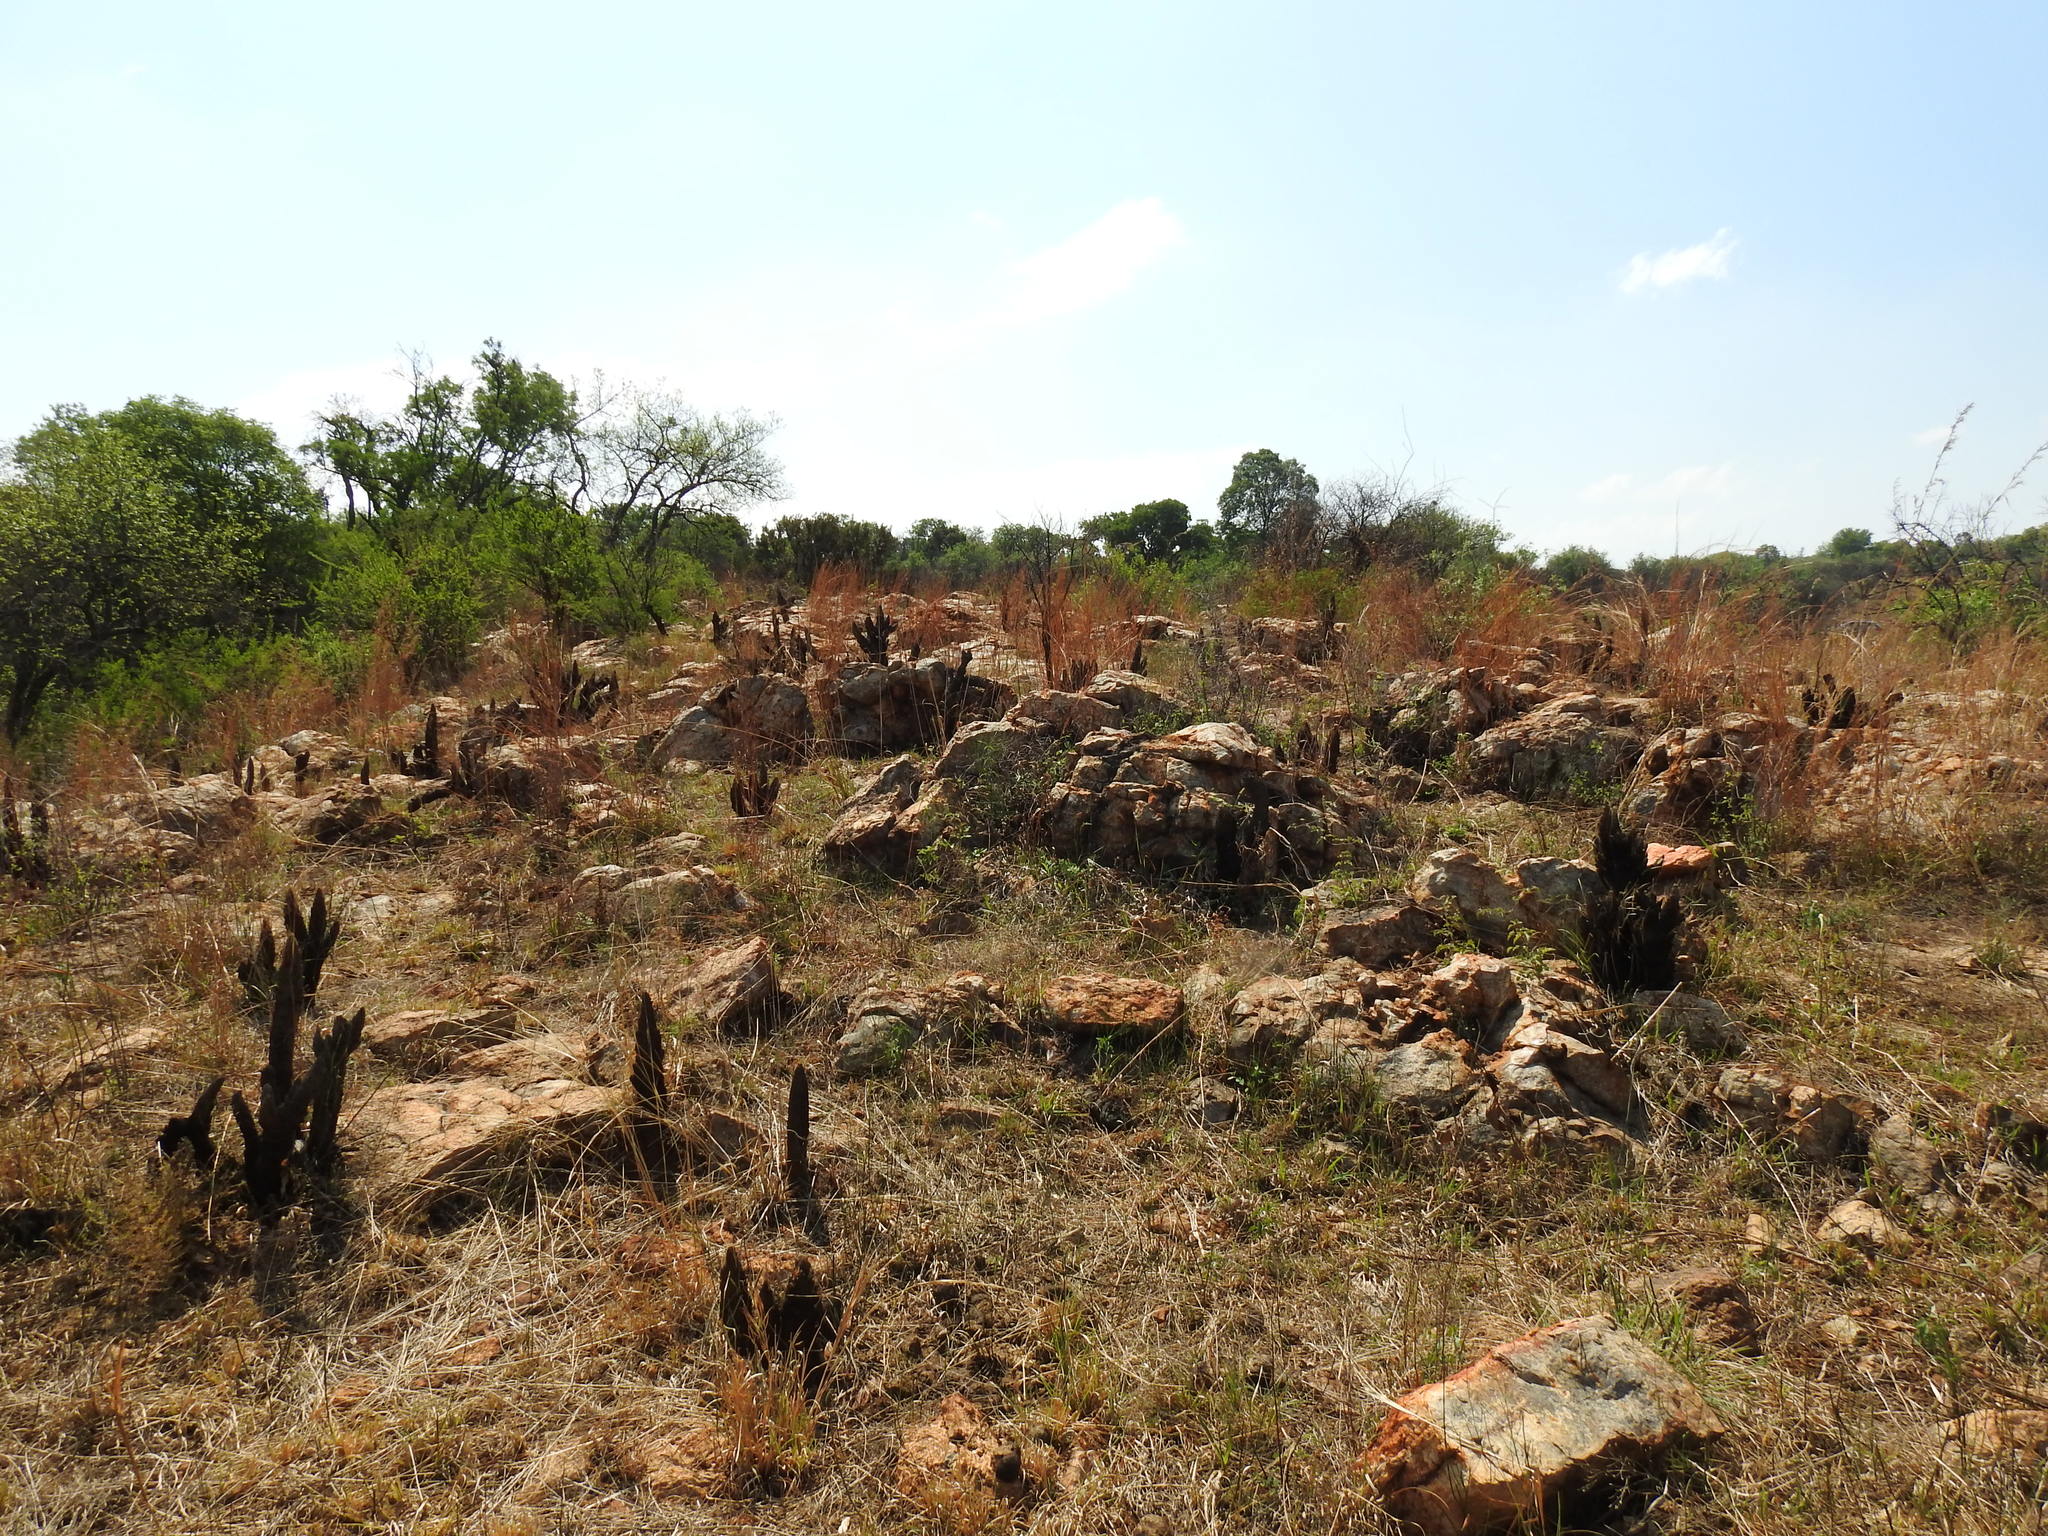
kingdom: Plantae
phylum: Tracheophyta
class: Liliopsida
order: Pandanales
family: Velloziaceae
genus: Xerophyta
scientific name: Xerophyta retinervis
